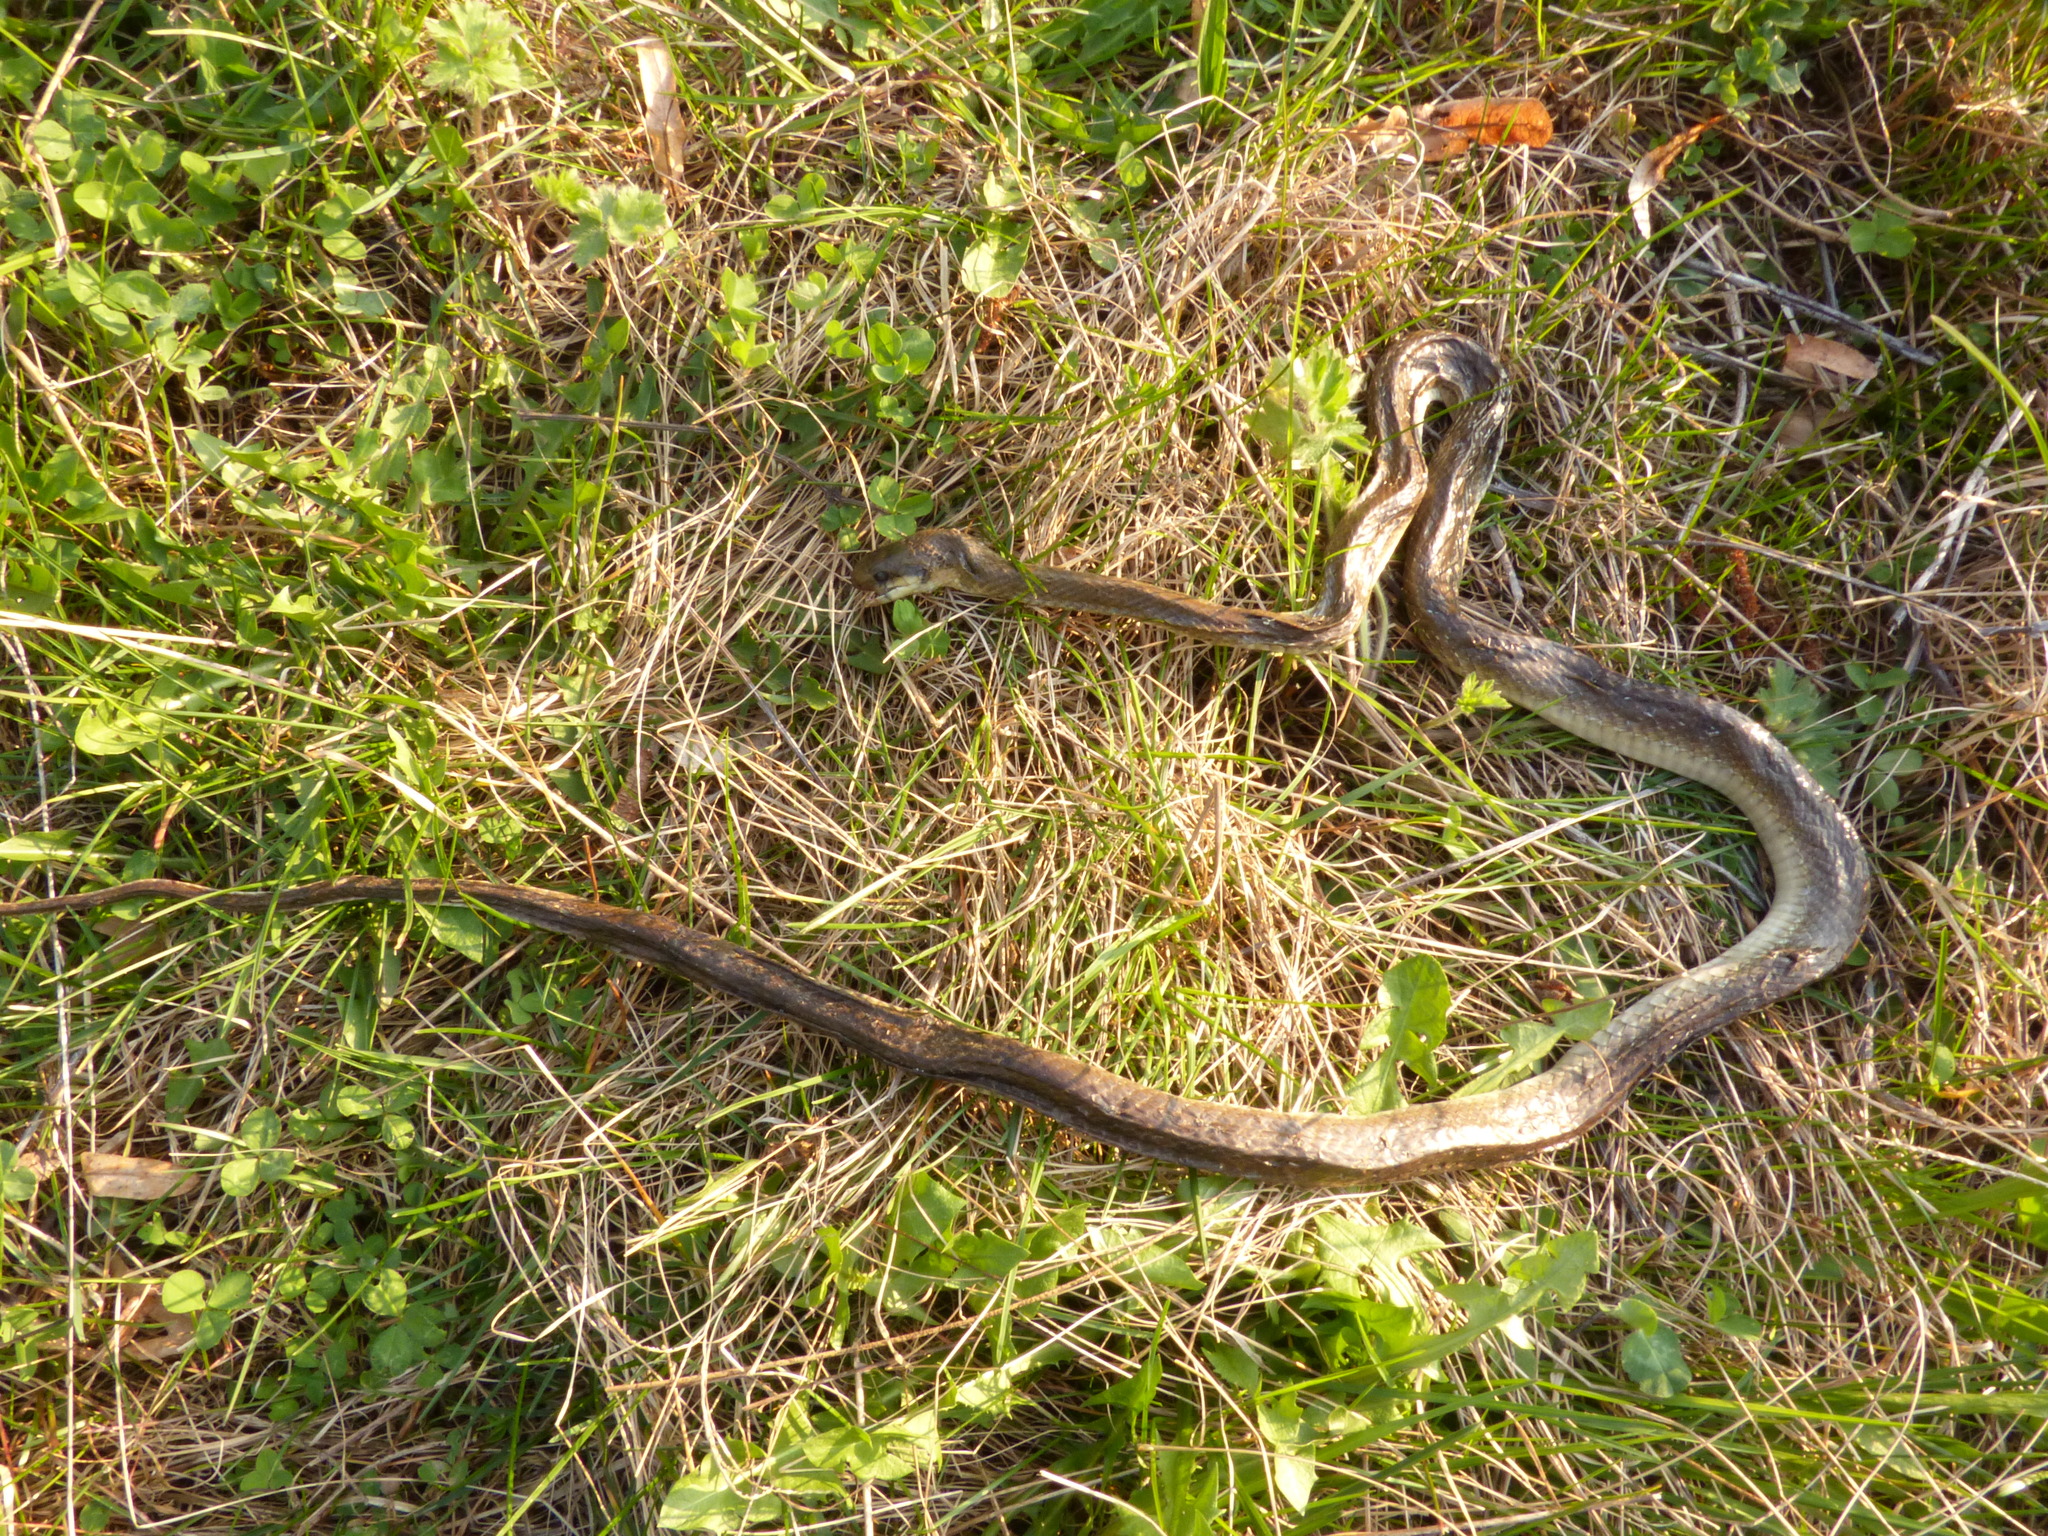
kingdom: Animalia
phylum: Chordata
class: Squamata
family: Colubridae
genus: Zamenis
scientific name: Zamenis longissimus
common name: Aesculapean snake
